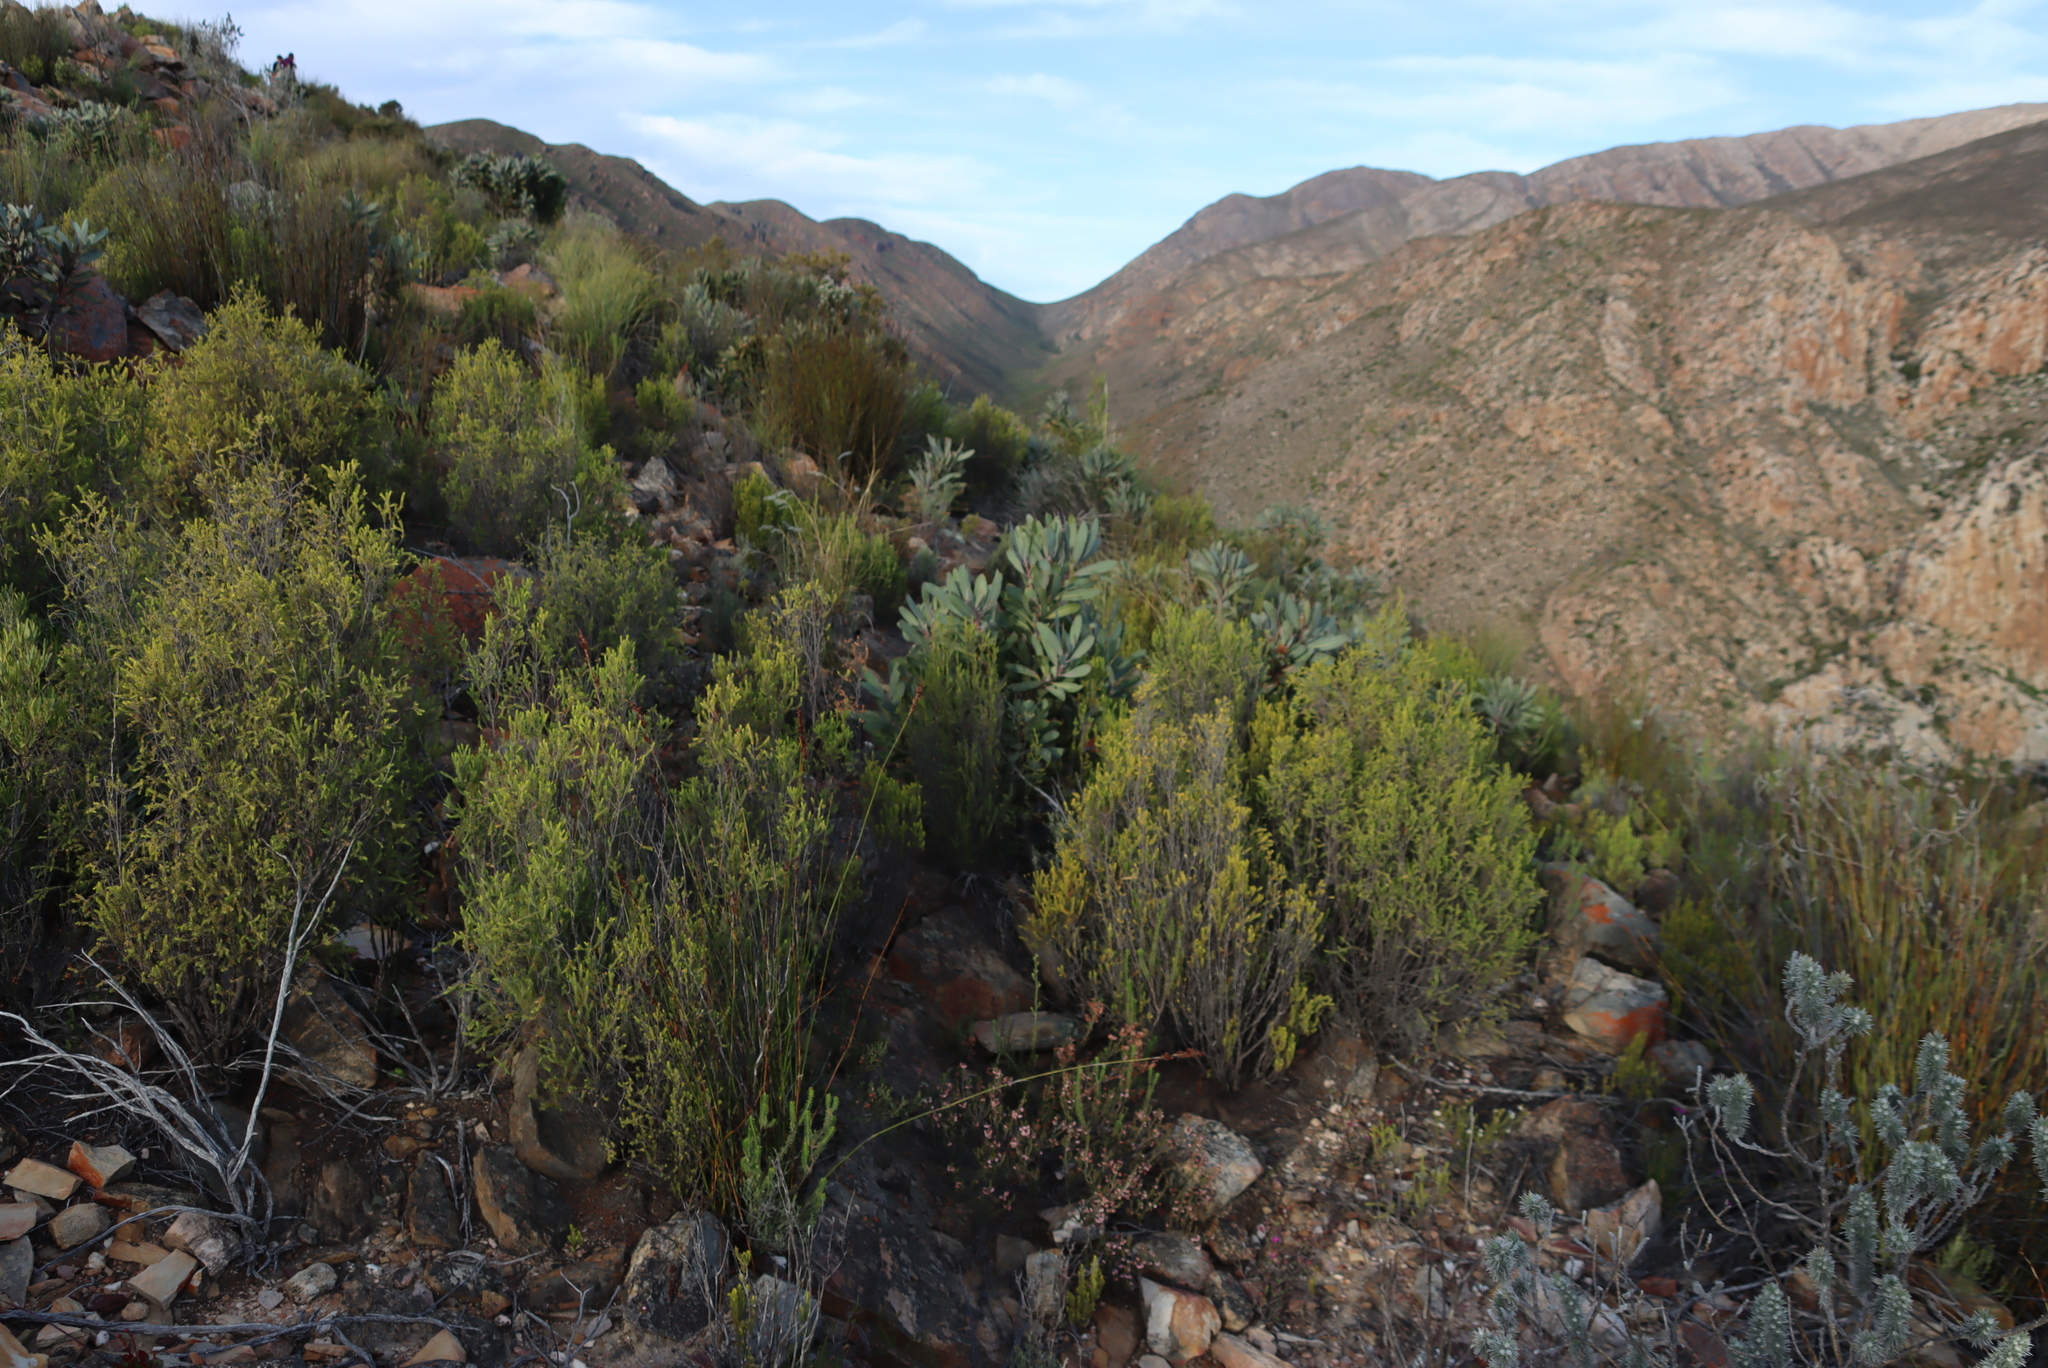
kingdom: Plantae
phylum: Tracheophyta
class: Magnoliopsida
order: Proteales
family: Proteaceae
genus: Protea
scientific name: Protea lorifolia
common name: Strap-leaved protea
